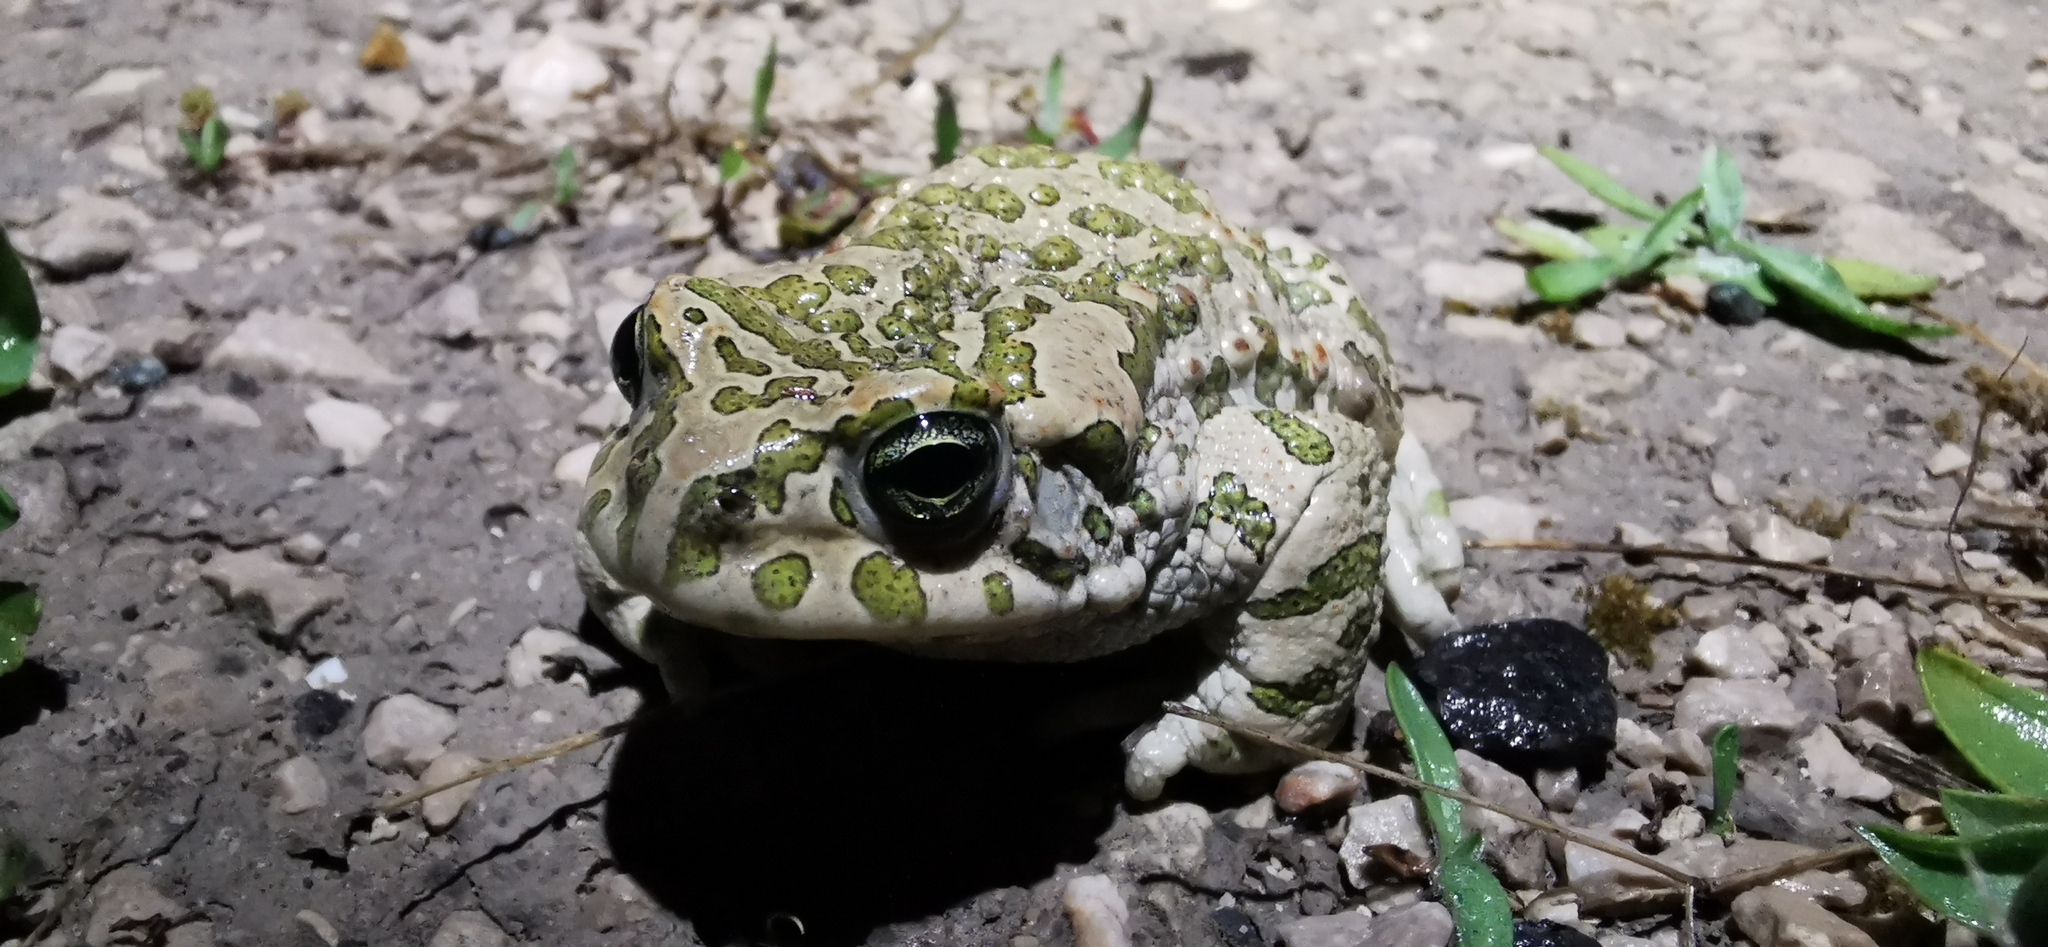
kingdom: Animalia
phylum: Chordata
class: Amphibia
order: Anura
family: Bufonidae
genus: Bufotes
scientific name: Bufotes viridis
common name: European green toad
